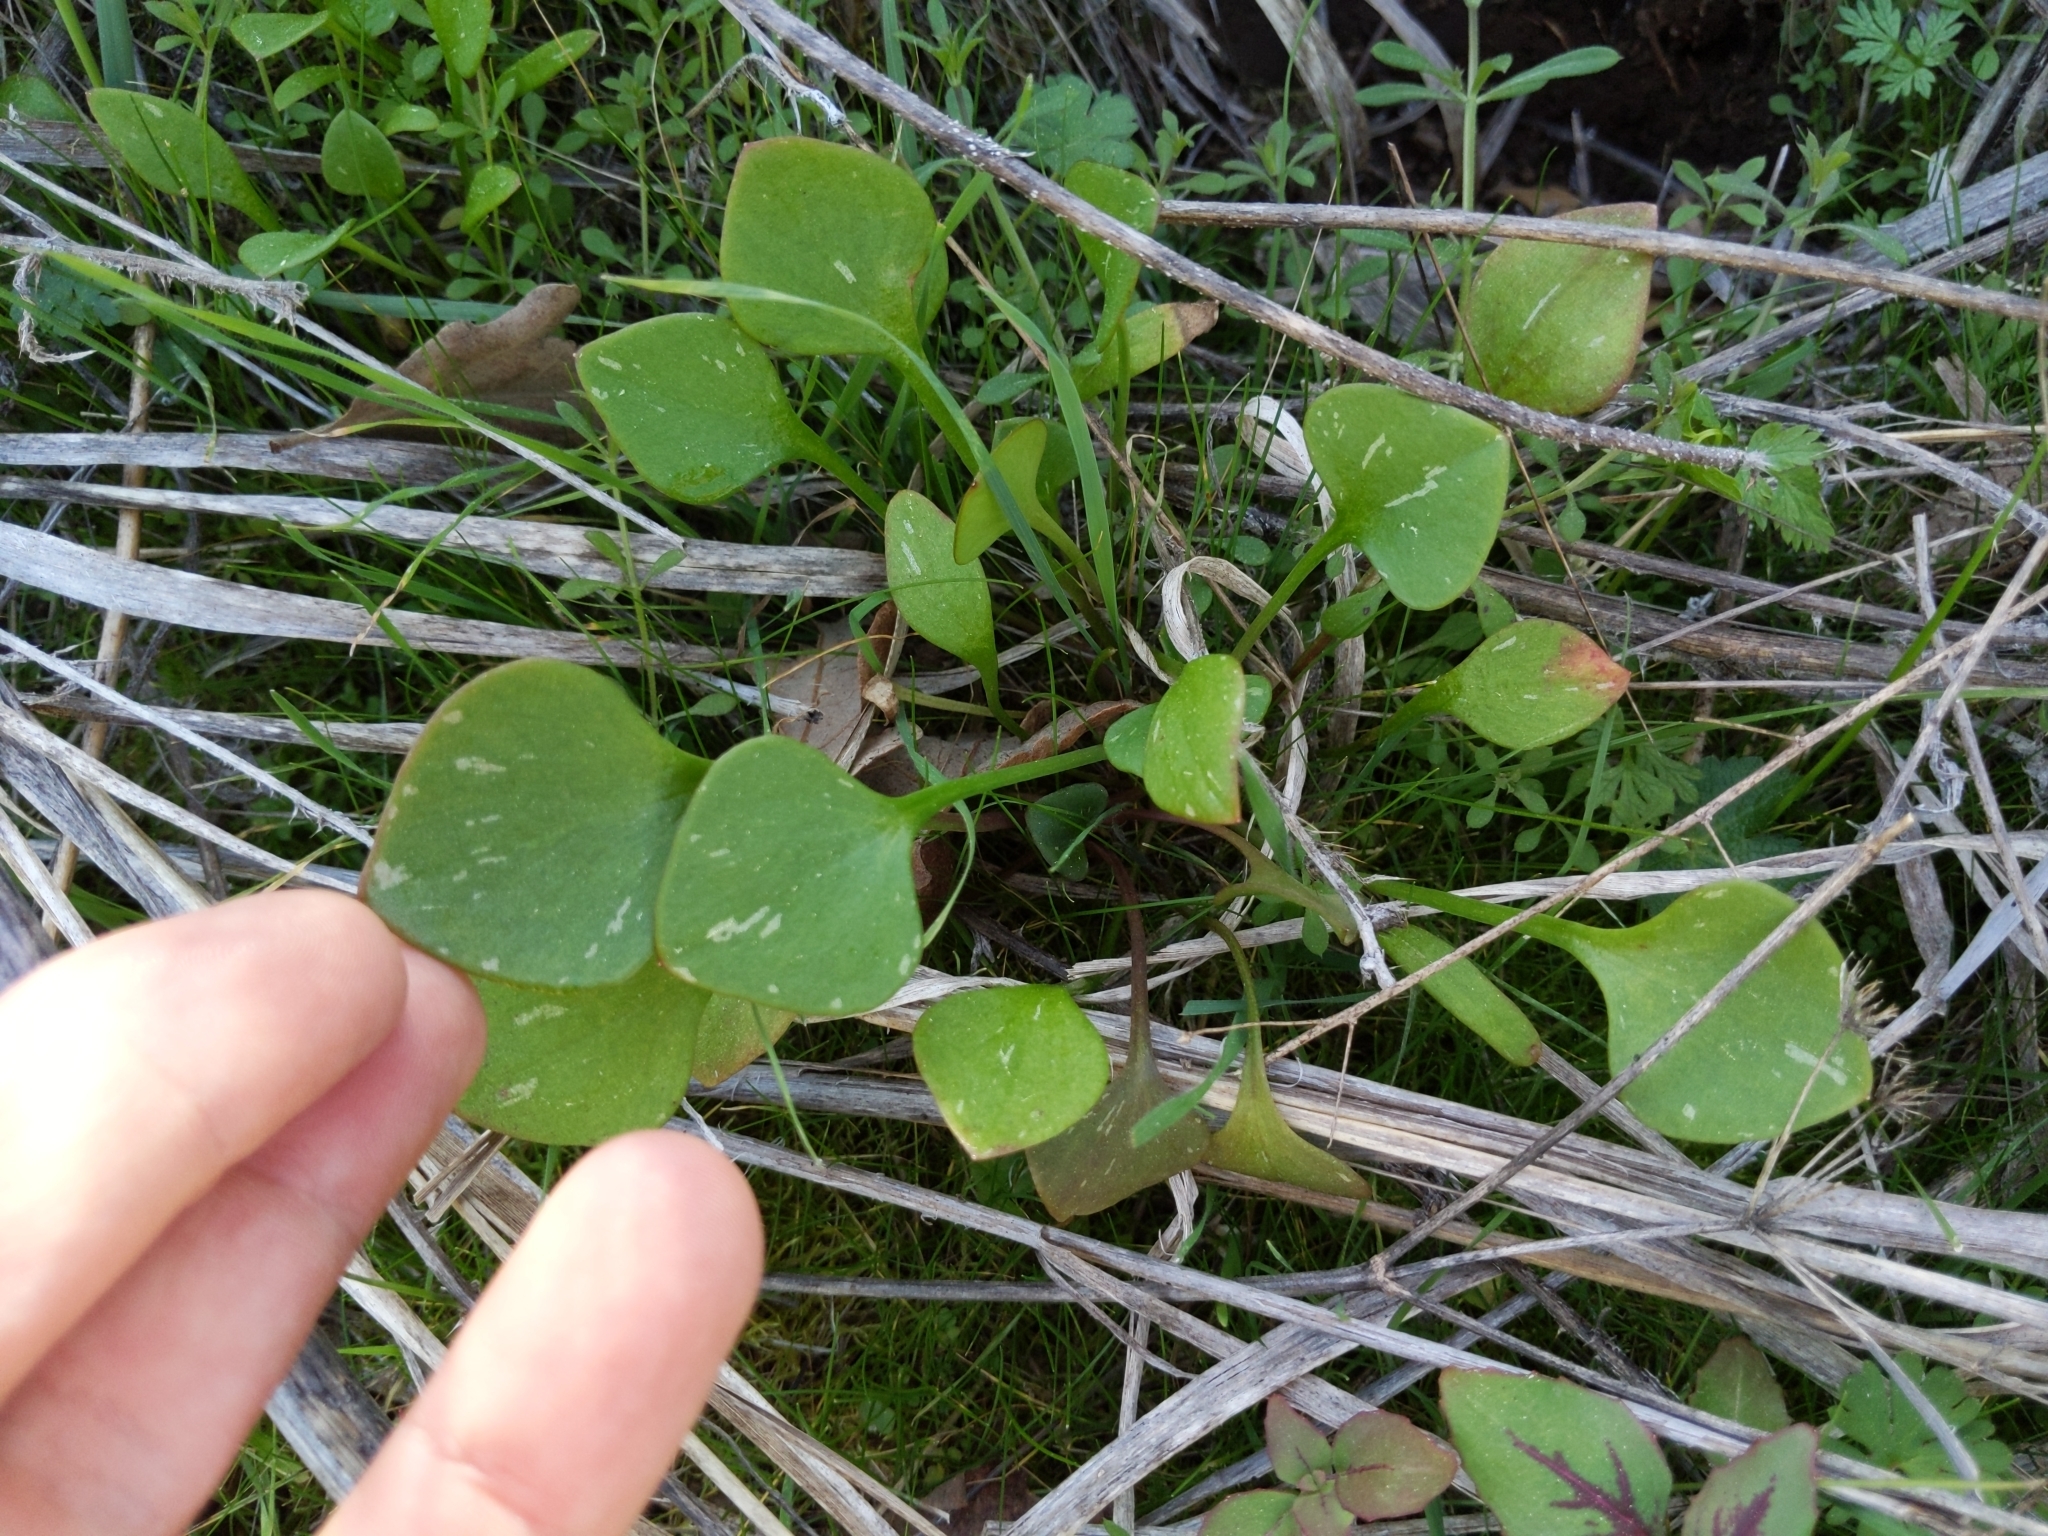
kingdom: Plantae
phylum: Tracheophyta
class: Magnoliopsida
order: Caryophyllales
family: Montiaceae
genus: Claytonia
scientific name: Claytonia perfoliata
